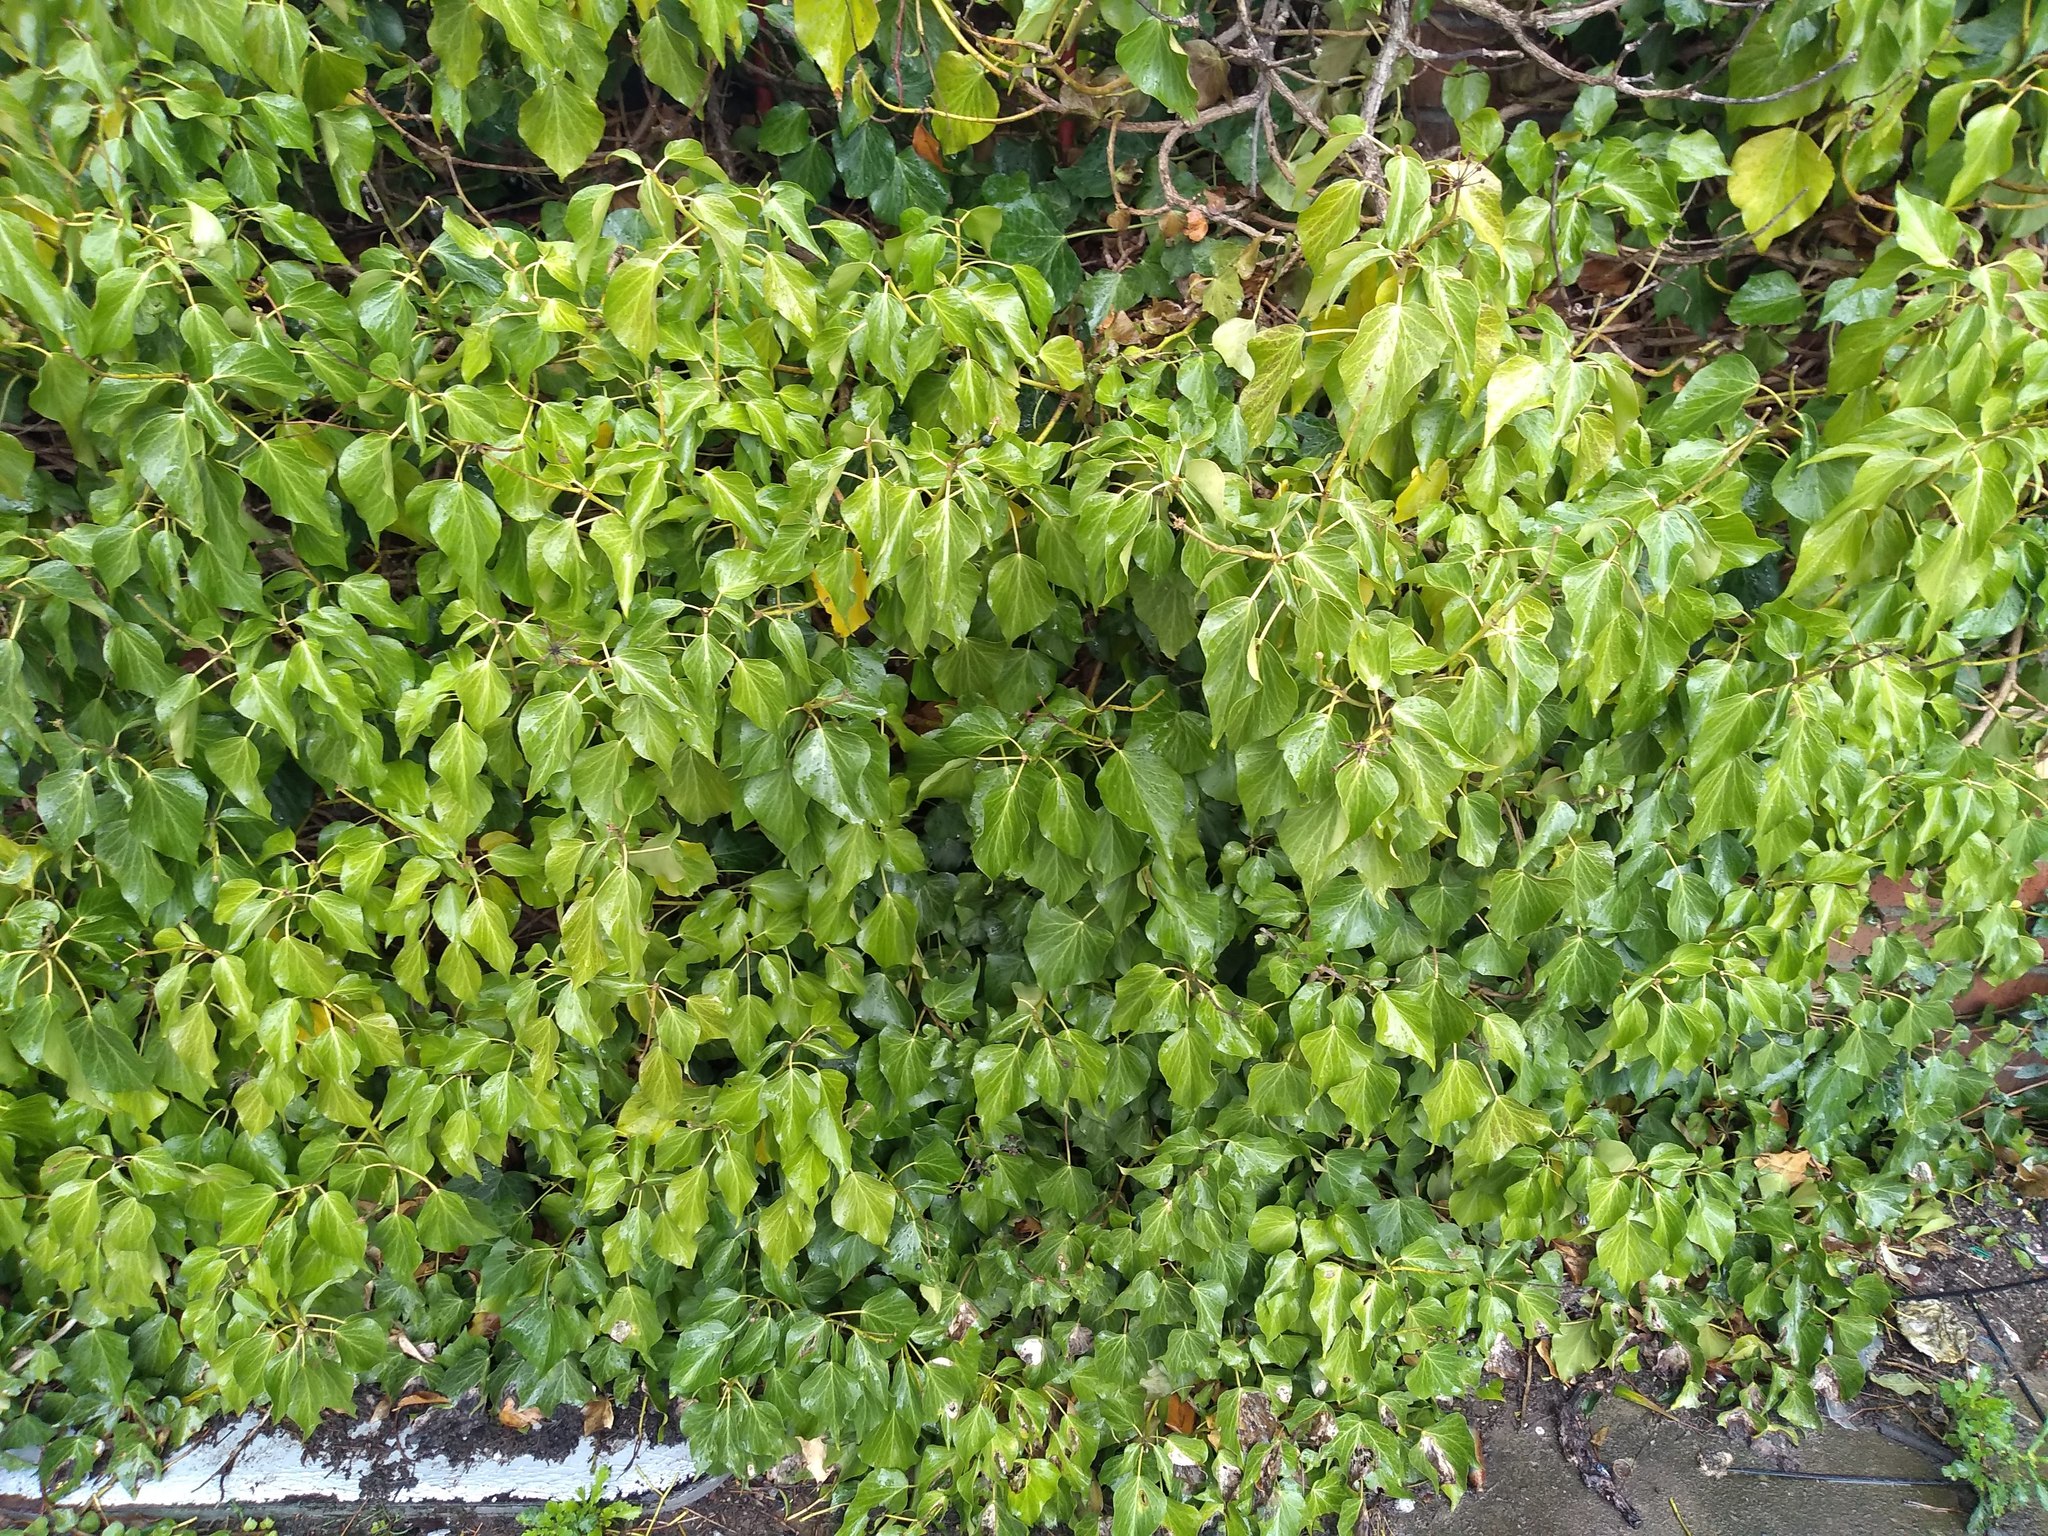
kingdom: Plantae
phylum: Tracheophyta
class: Magnoliopsida
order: Apiales
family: Araliaceae
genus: Hedera
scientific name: Hedera helix
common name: Ivy
